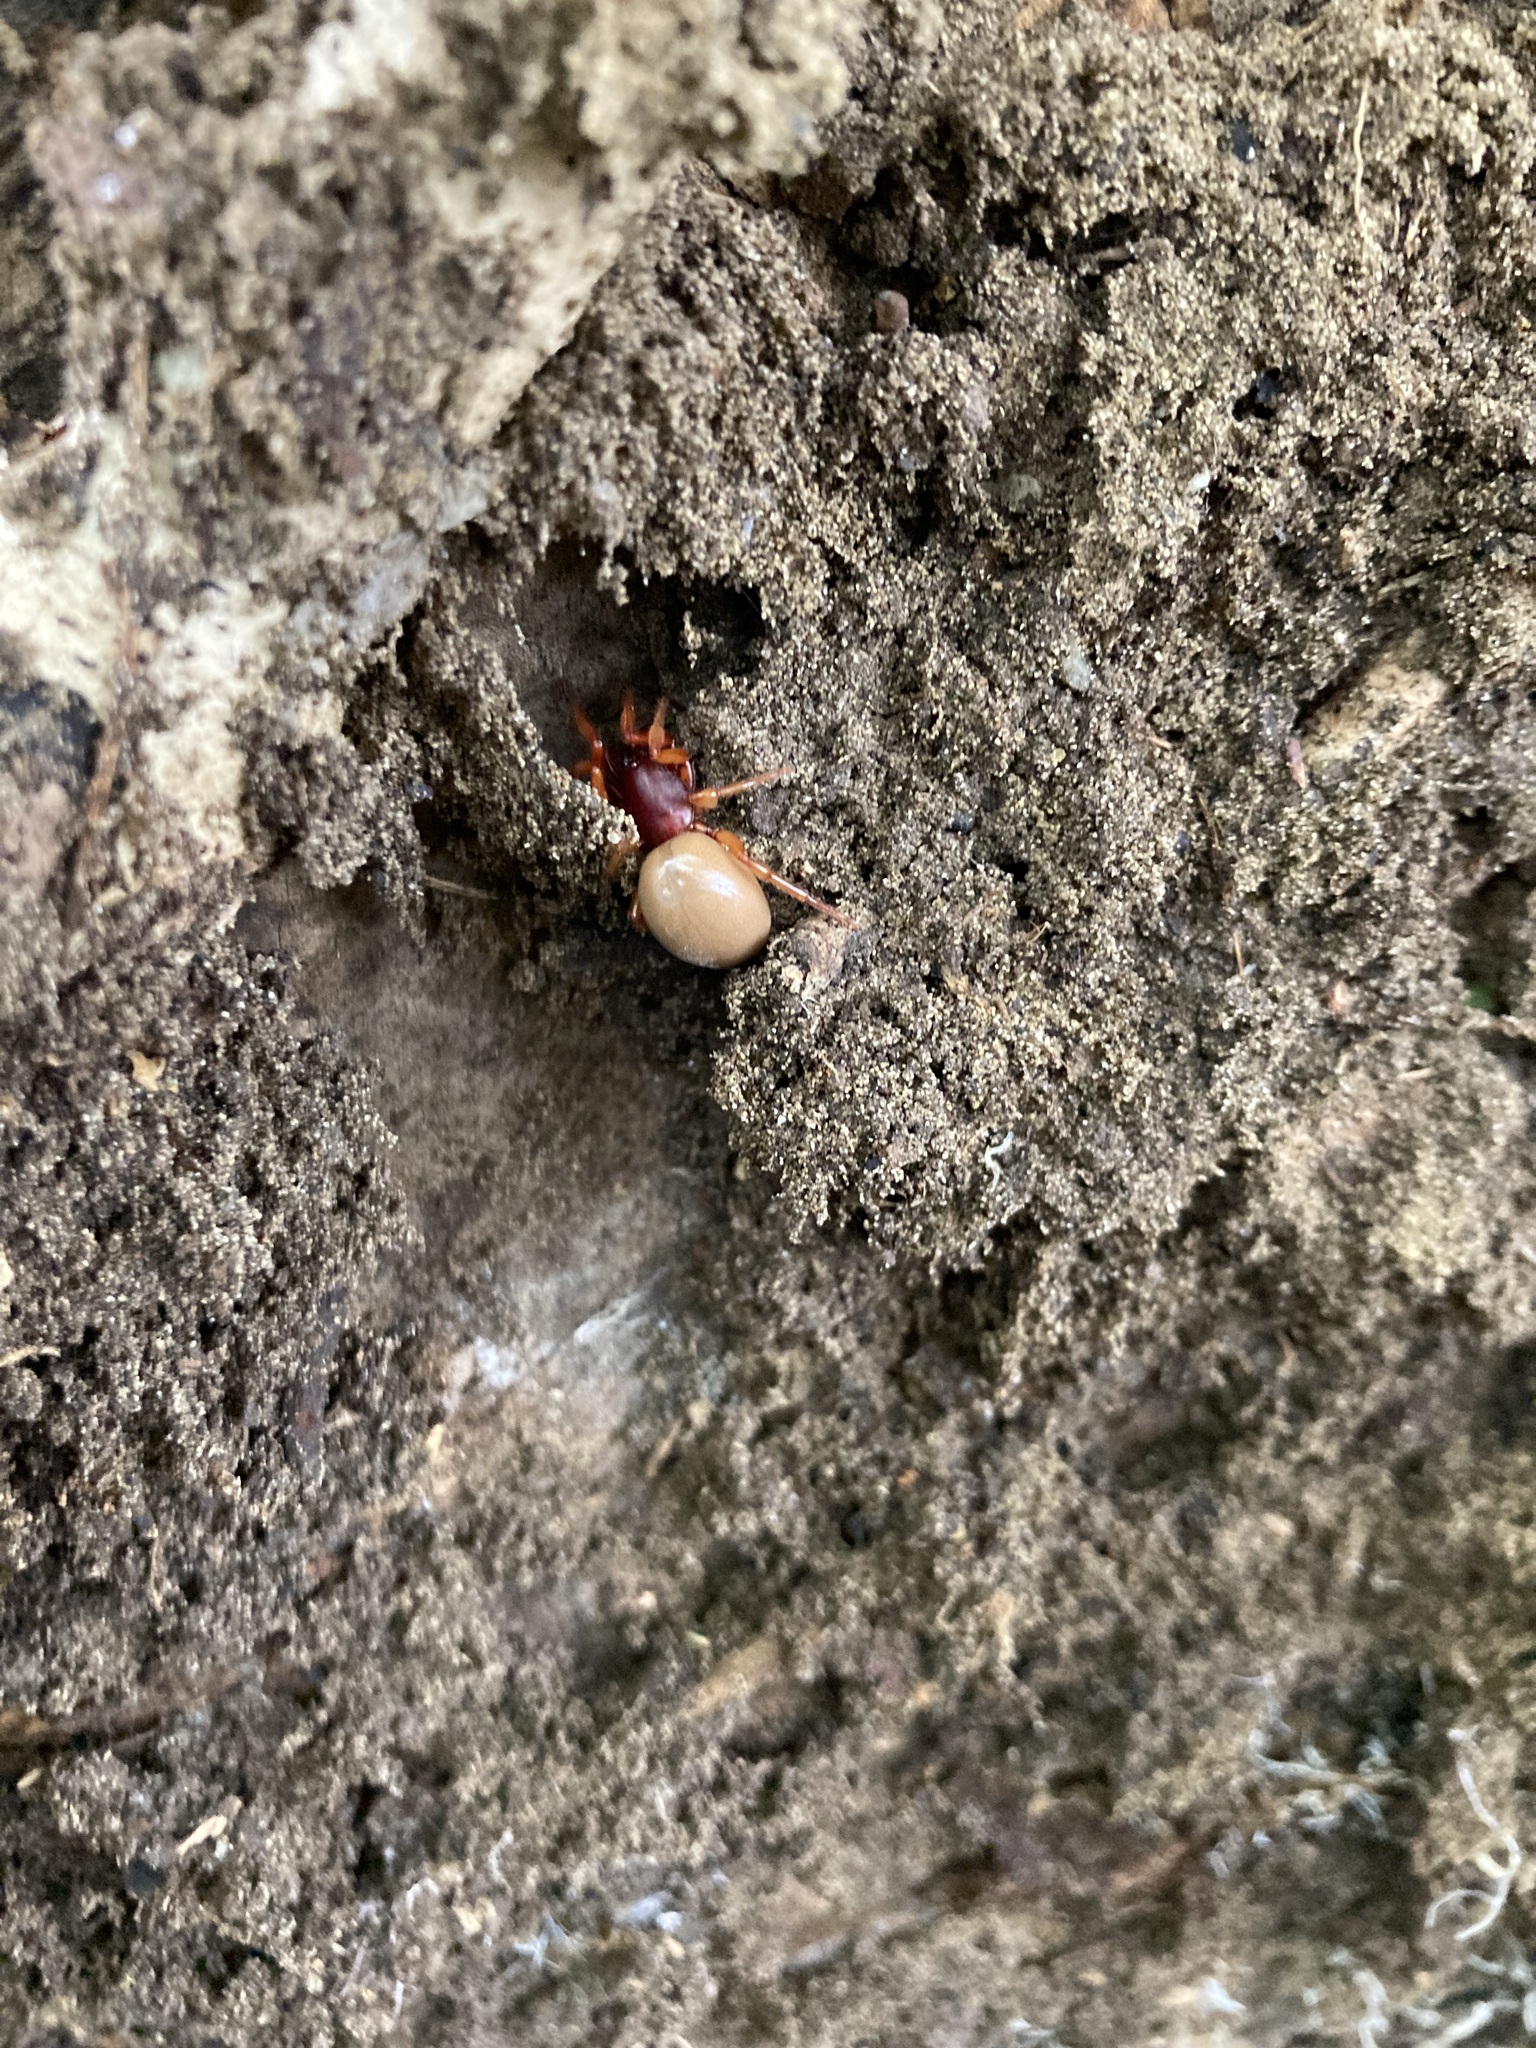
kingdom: Animalia
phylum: Arthropoda
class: Arachnida
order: Araneae
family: Dysderidae
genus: Dysdera
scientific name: Dysdera crocata
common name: Woodlouse spider
